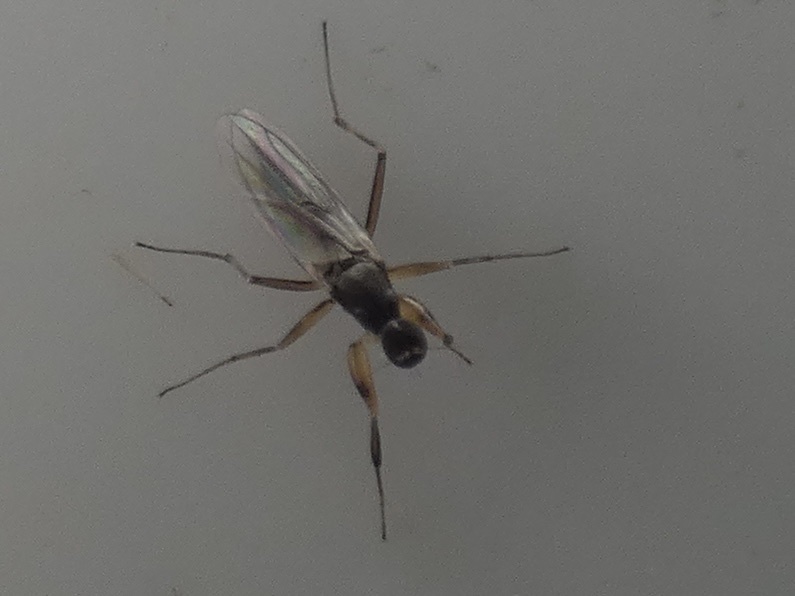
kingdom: Animalia
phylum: Arthropoda
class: Insecta
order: Diptera
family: Hybotidae
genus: Tachypeza
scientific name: Tachypeza nubila
